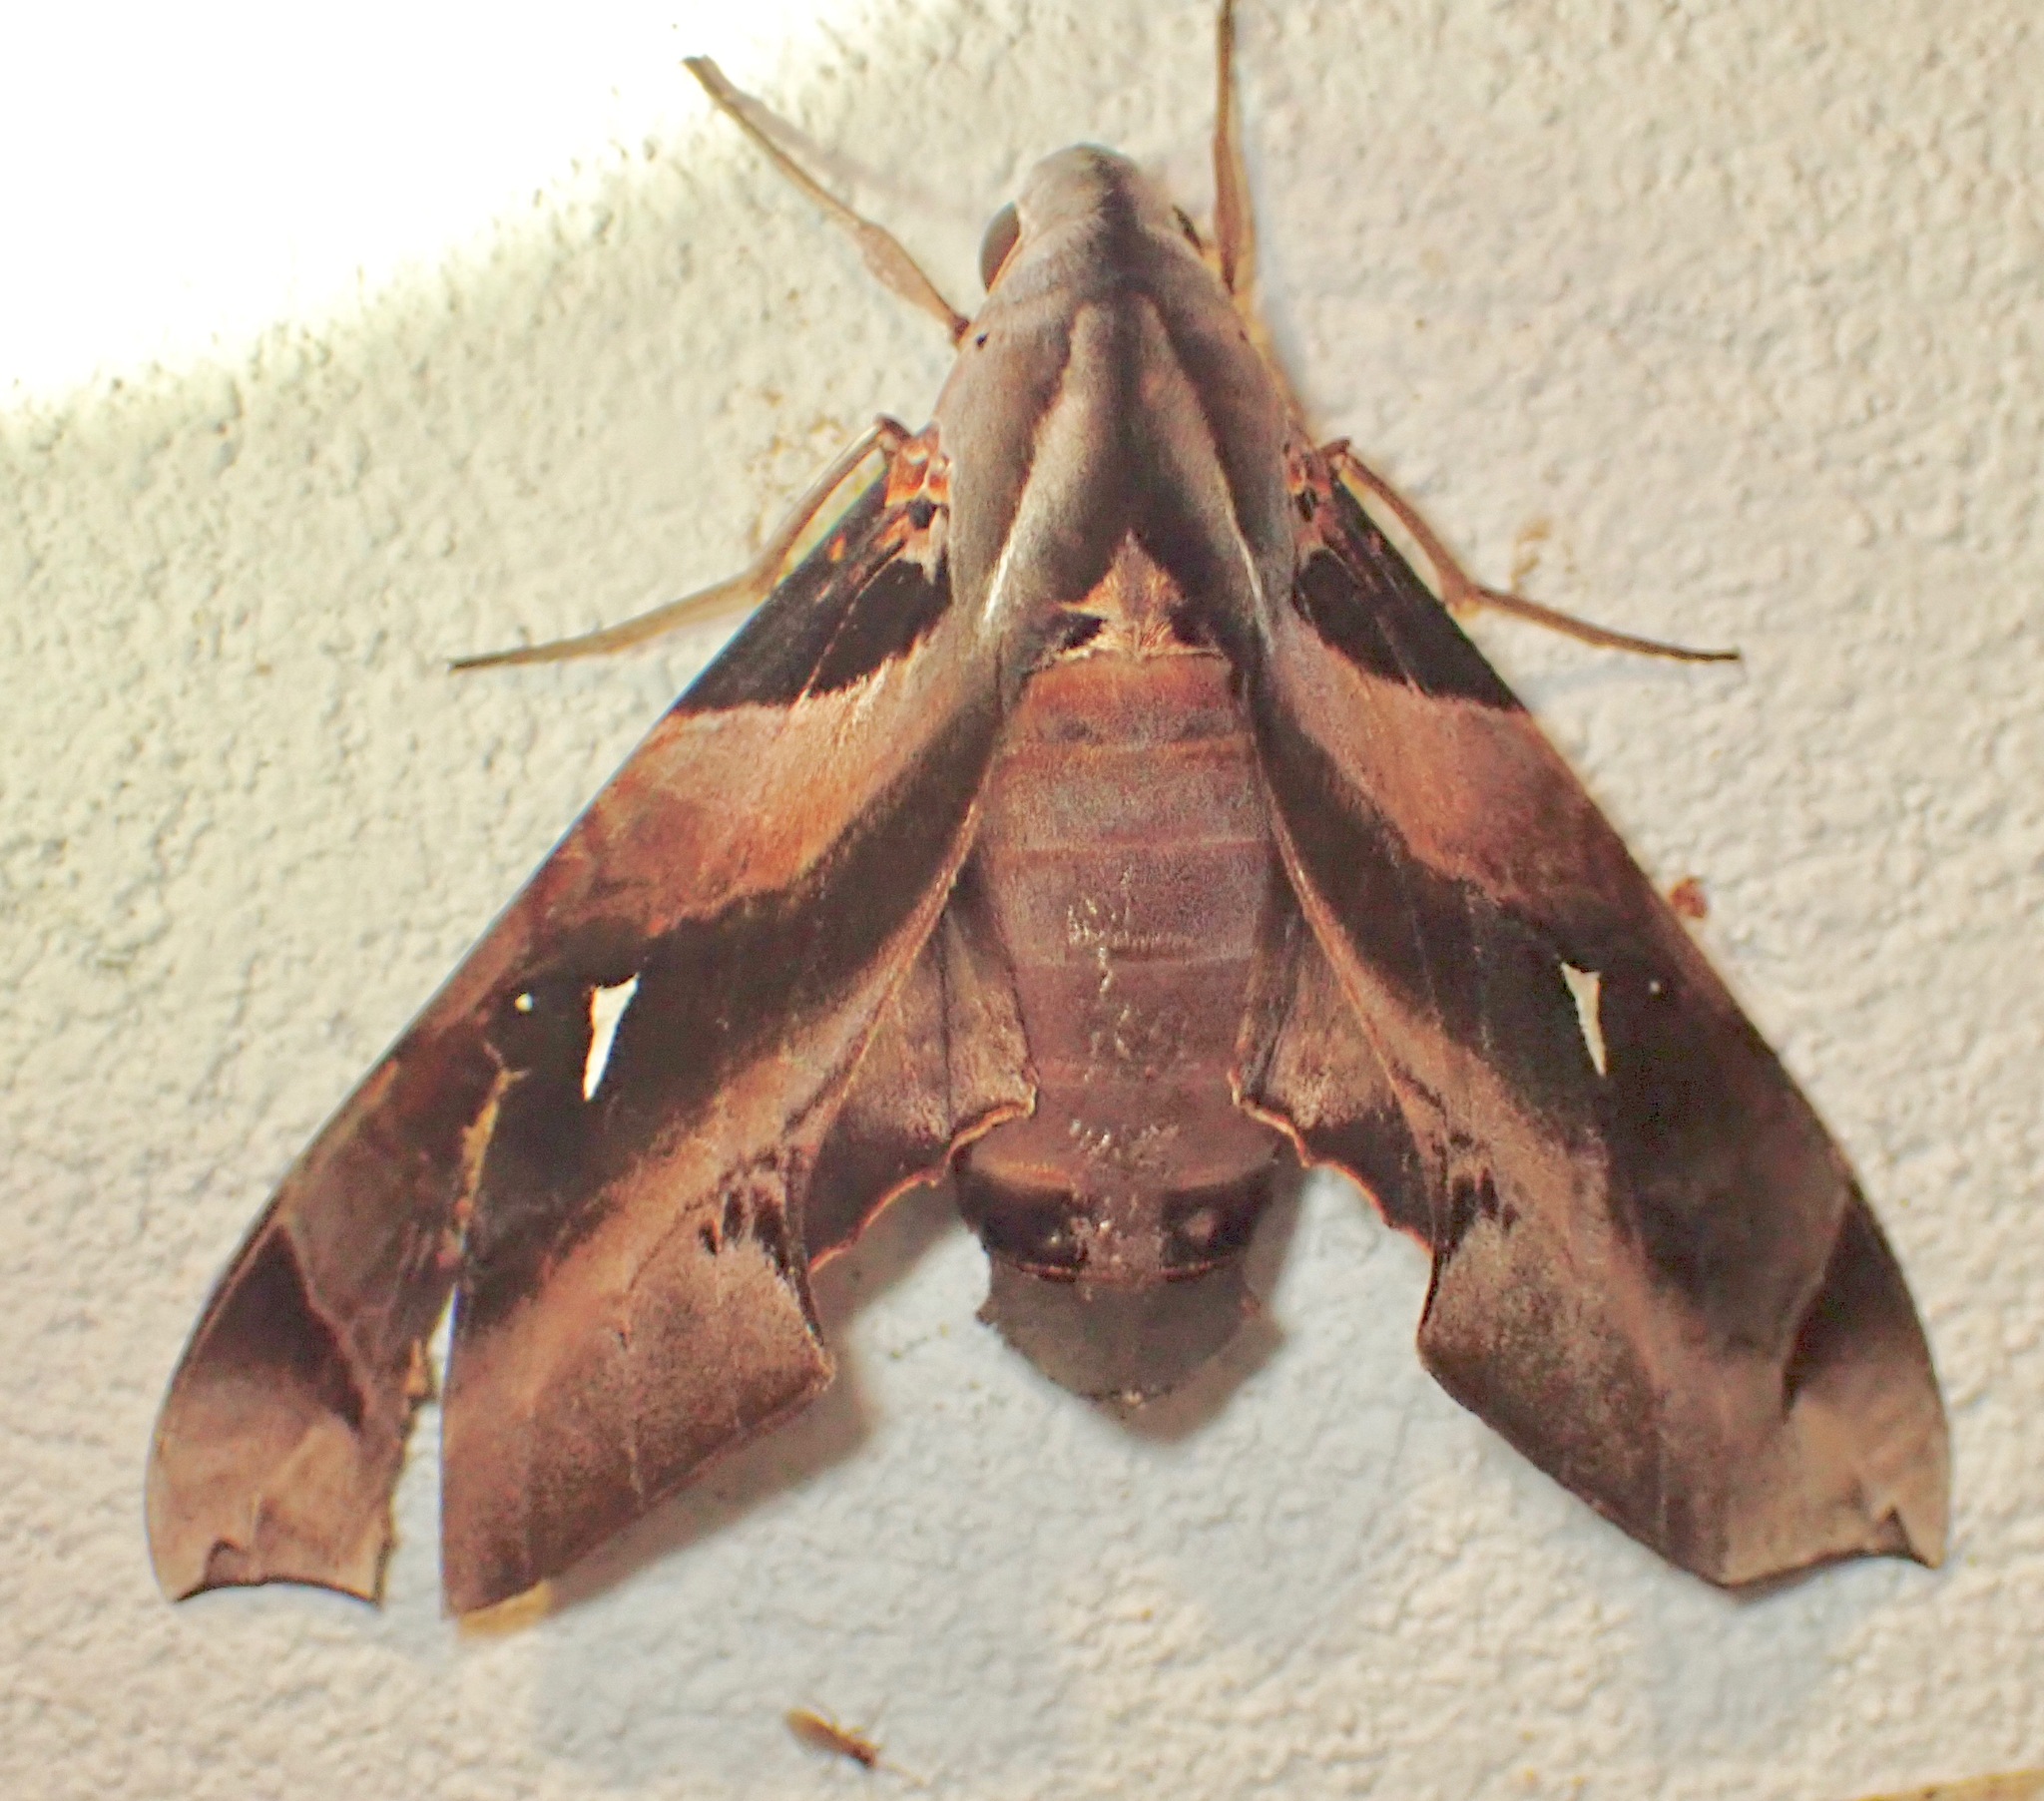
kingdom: Animalia
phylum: Arthropoda
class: Insecta
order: Lepidoptera
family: Sphingidae
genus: Madoryx
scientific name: Madoryx plutonius
